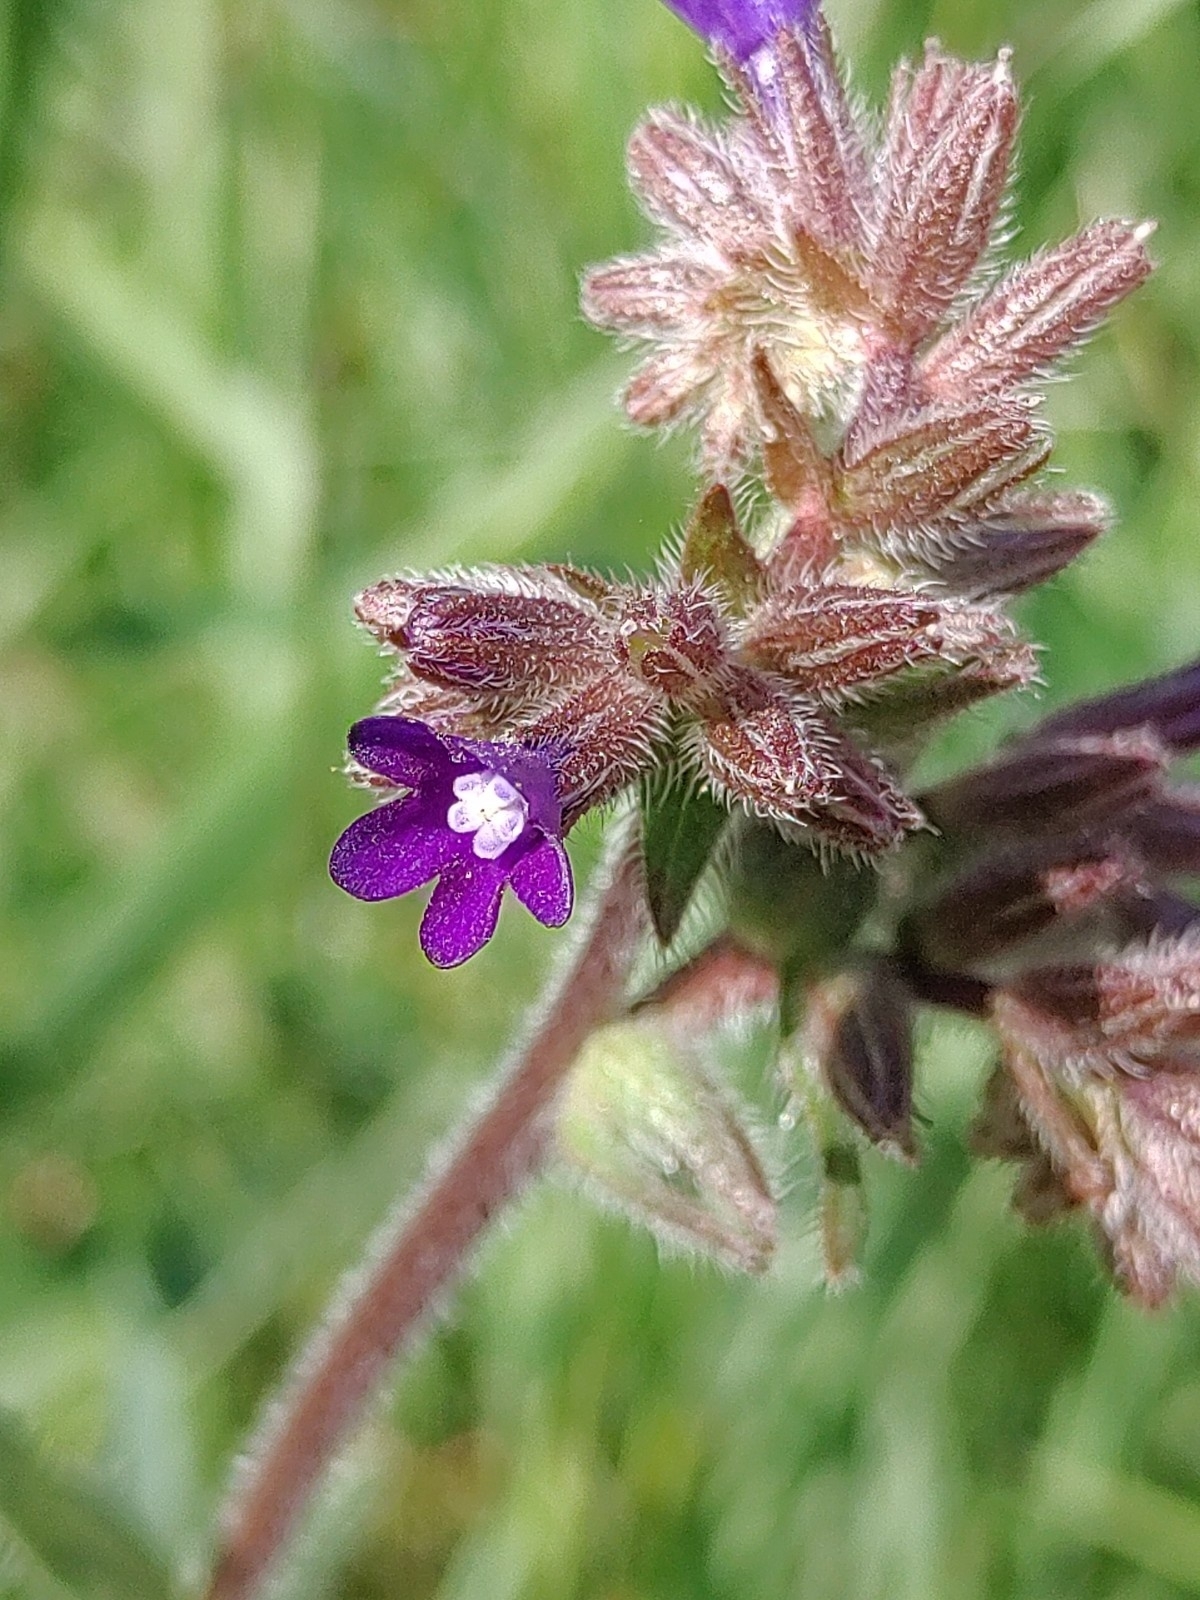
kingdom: Plantae
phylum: Tracheophyta
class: Magnoliopsida
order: Boraginales
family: Boraginaceae
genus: Anchusa
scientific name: Anchusa officinalis
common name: Alkanet
